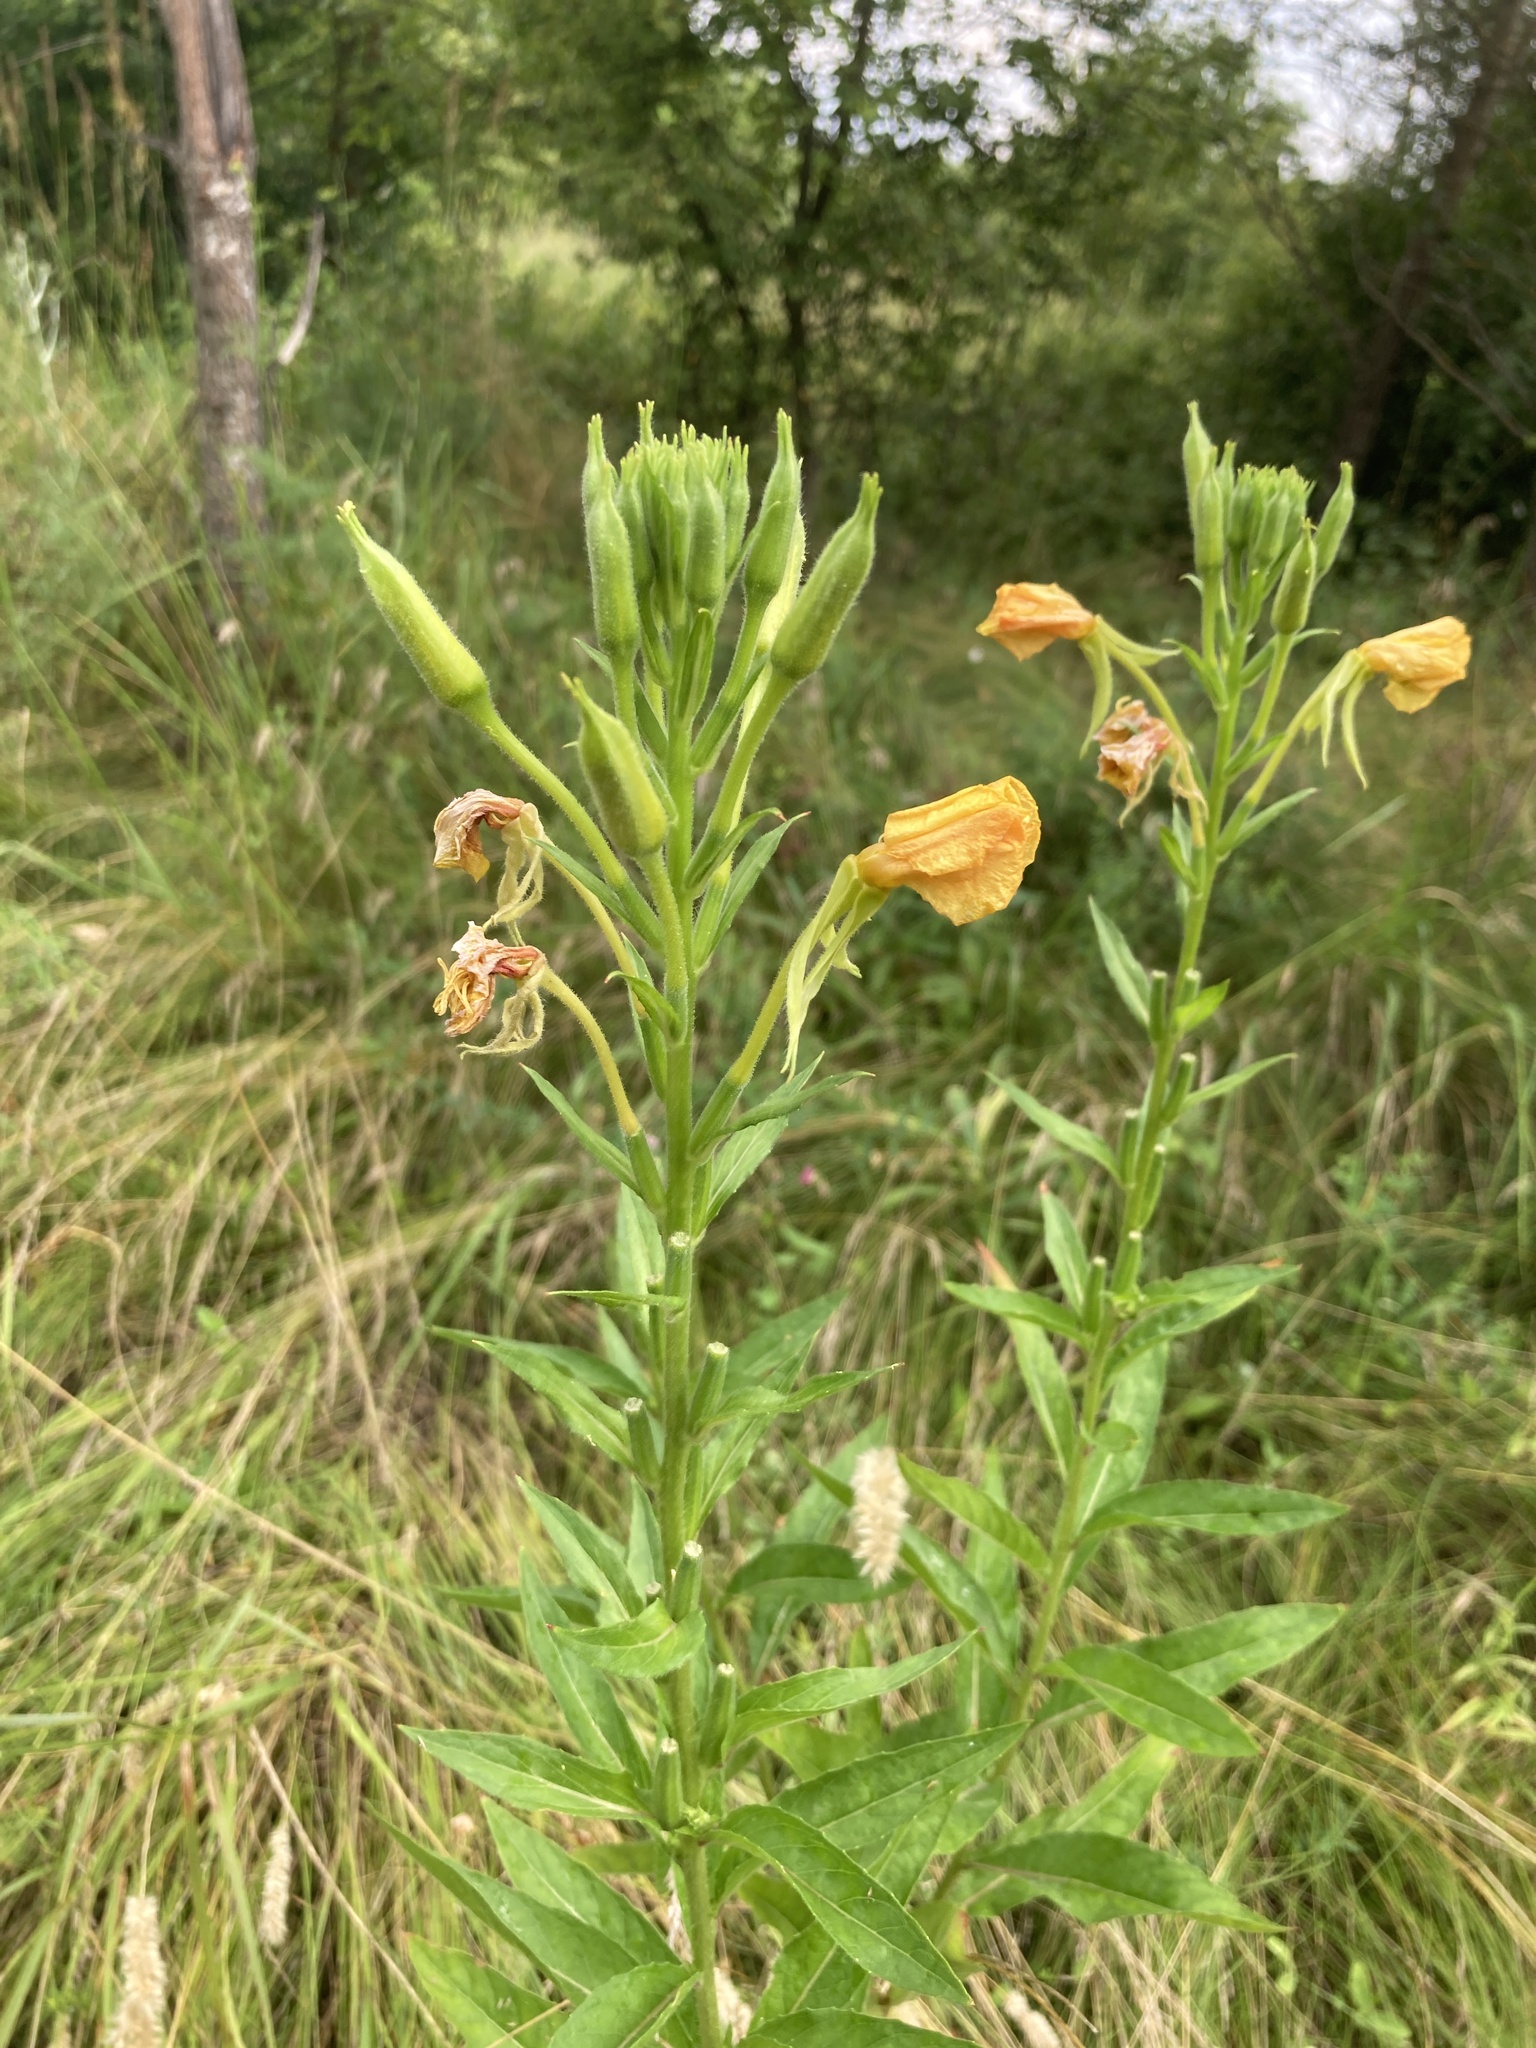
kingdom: Plantae
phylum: Tracheophyta
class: Magnoliopsida
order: Myrtales
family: Onagraceae
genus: Oenothera
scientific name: Oenothera biennis
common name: Common evening-primrose
